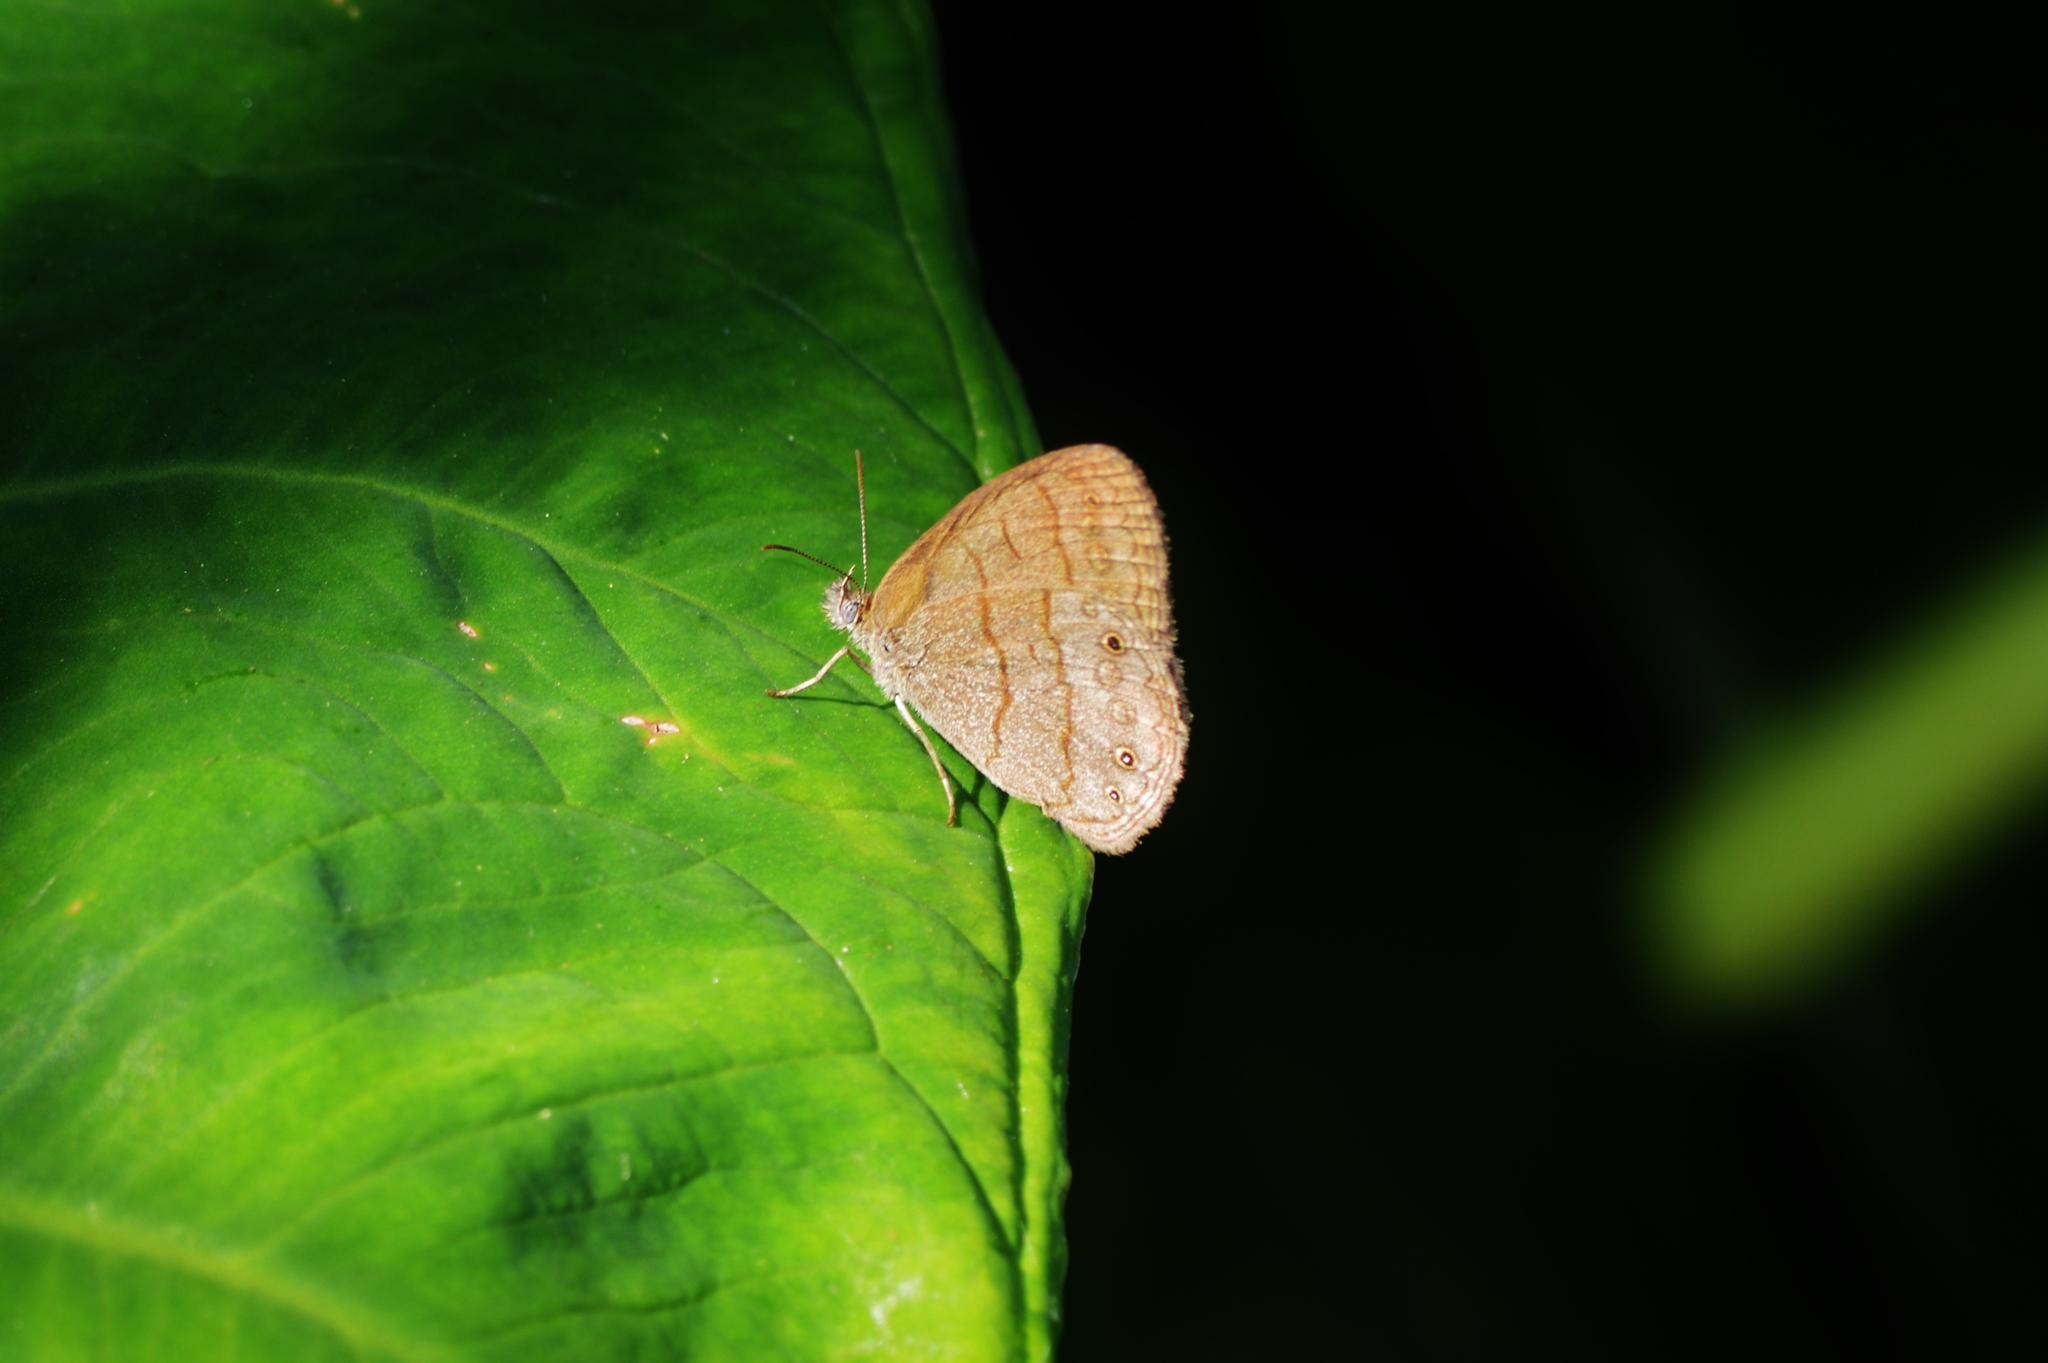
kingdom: Animalia
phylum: Arthropoda
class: Insecta
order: Lepidoptera
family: Nymphalidae
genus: Hermeuptychia
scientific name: Hermeuptychia hermes
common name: Hermes satyr
